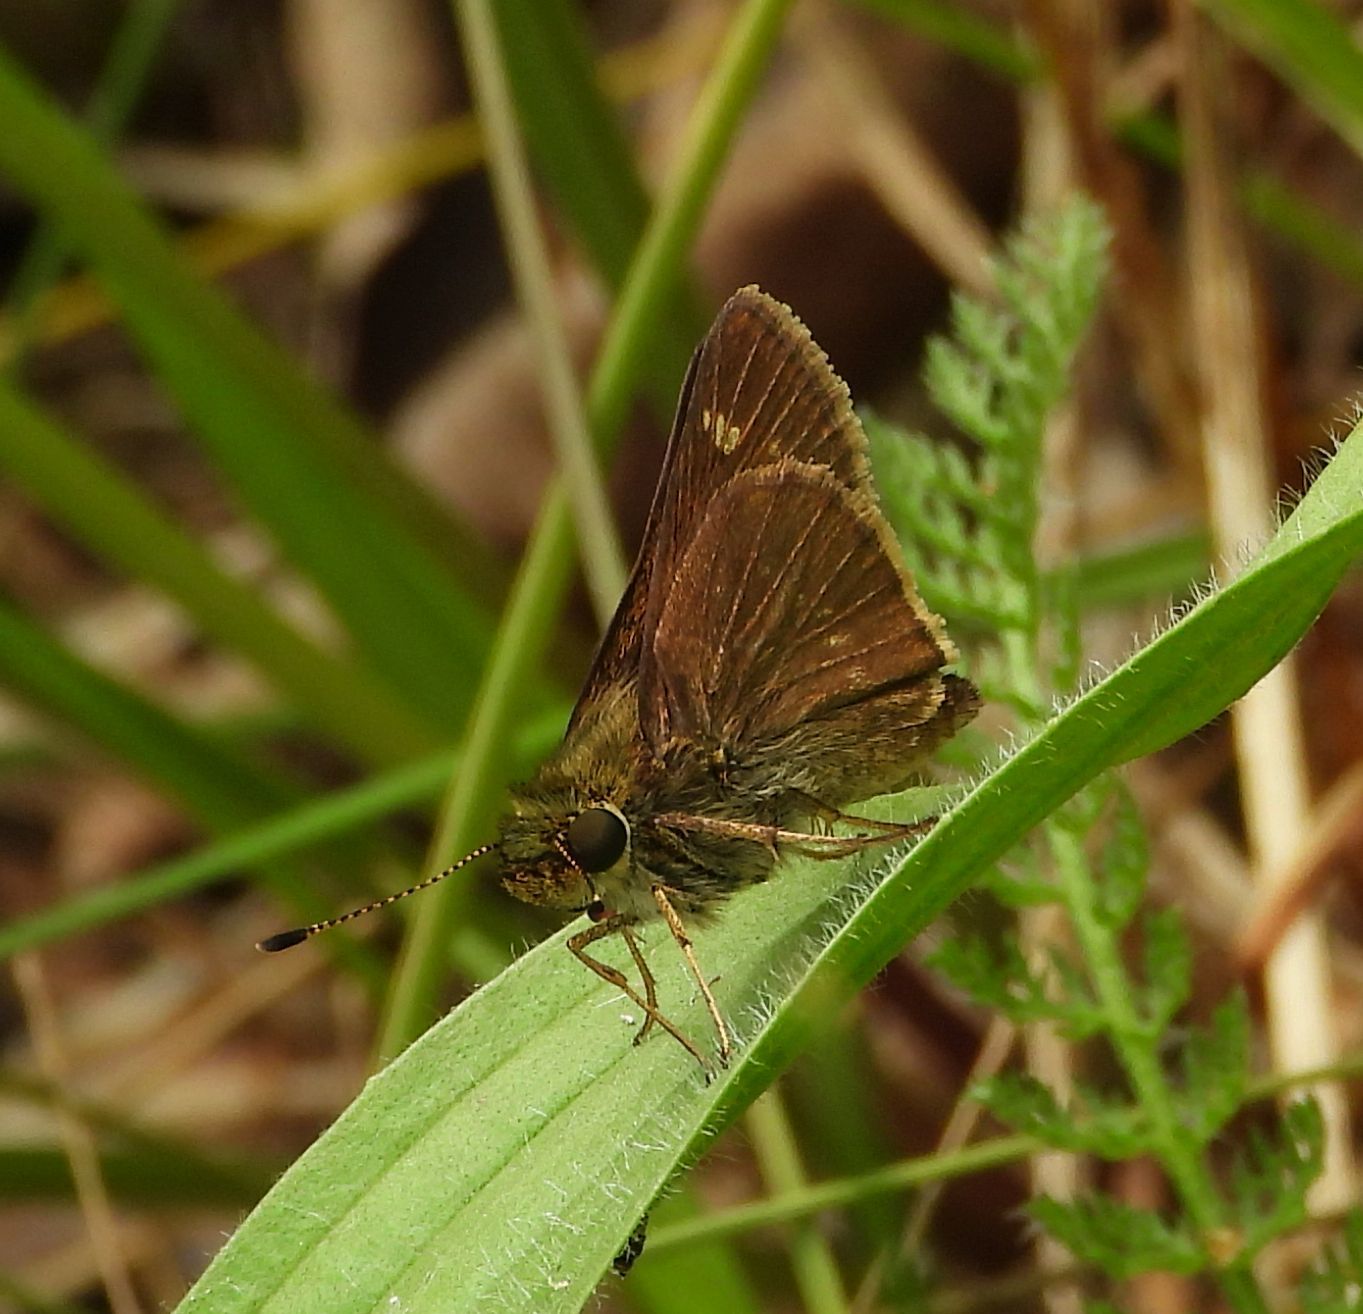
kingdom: Animalia
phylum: Arthropoda
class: Insecta
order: Lepidoptera
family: Hesperiidae
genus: Vernia
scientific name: Vernia verna
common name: Little glassywing
